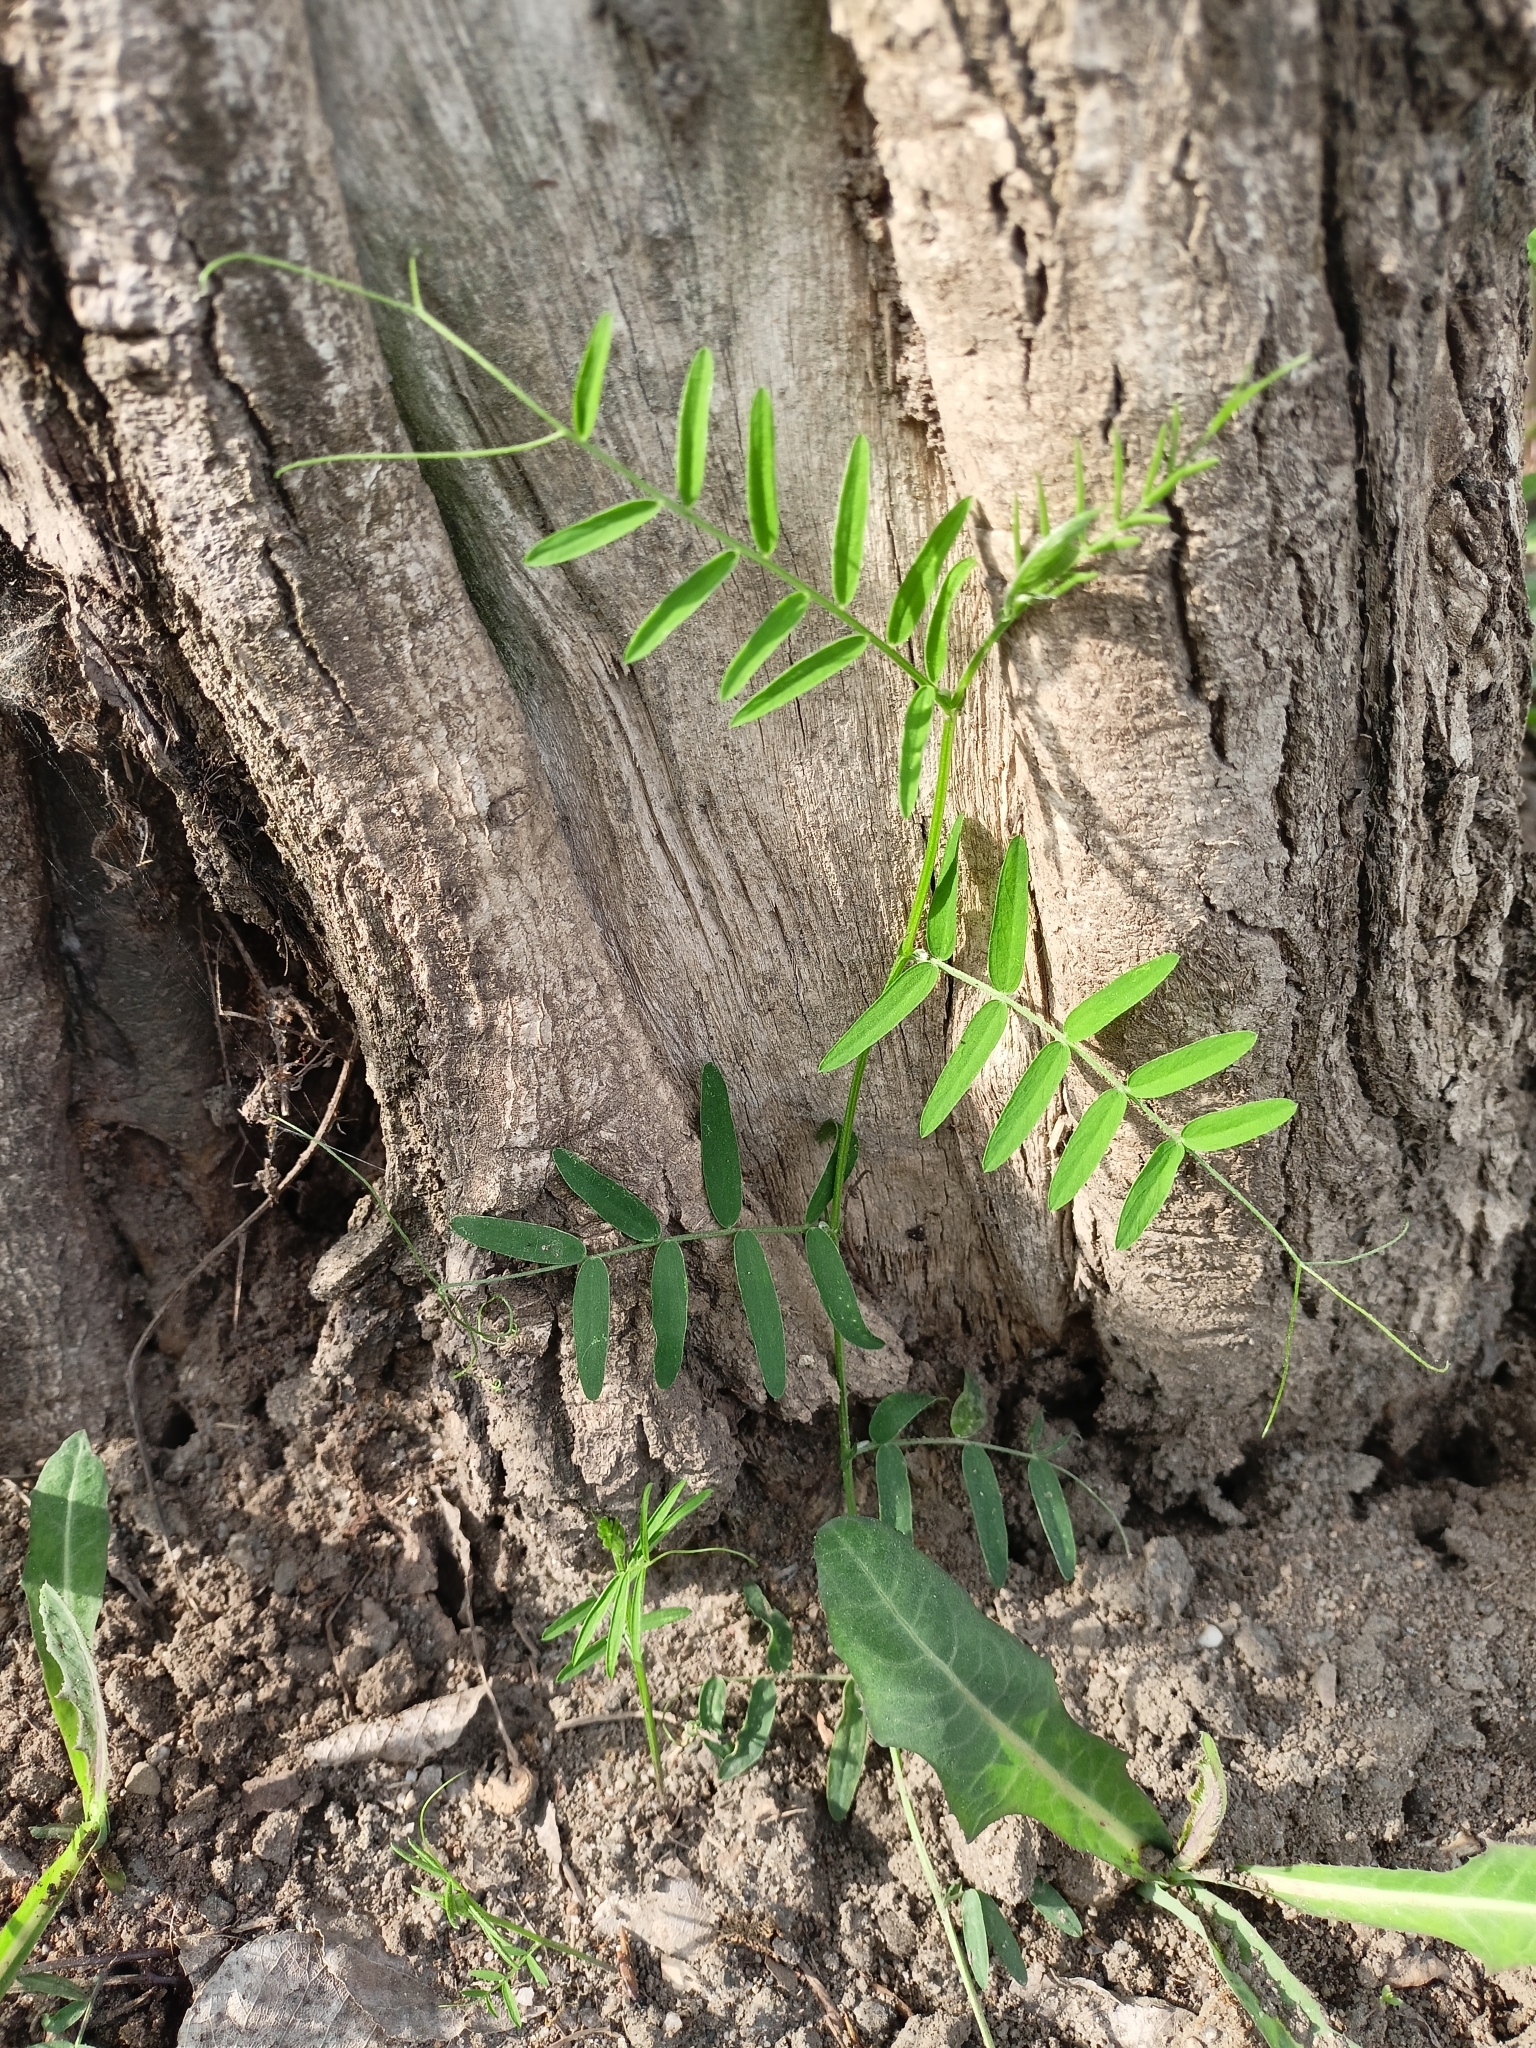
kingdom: Plantae
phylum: Tracheophyta
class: Magnoliopsida
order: Fabales
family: Fabaceae
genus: Vicia
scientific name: Vicia cracca
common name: Bird vetch
